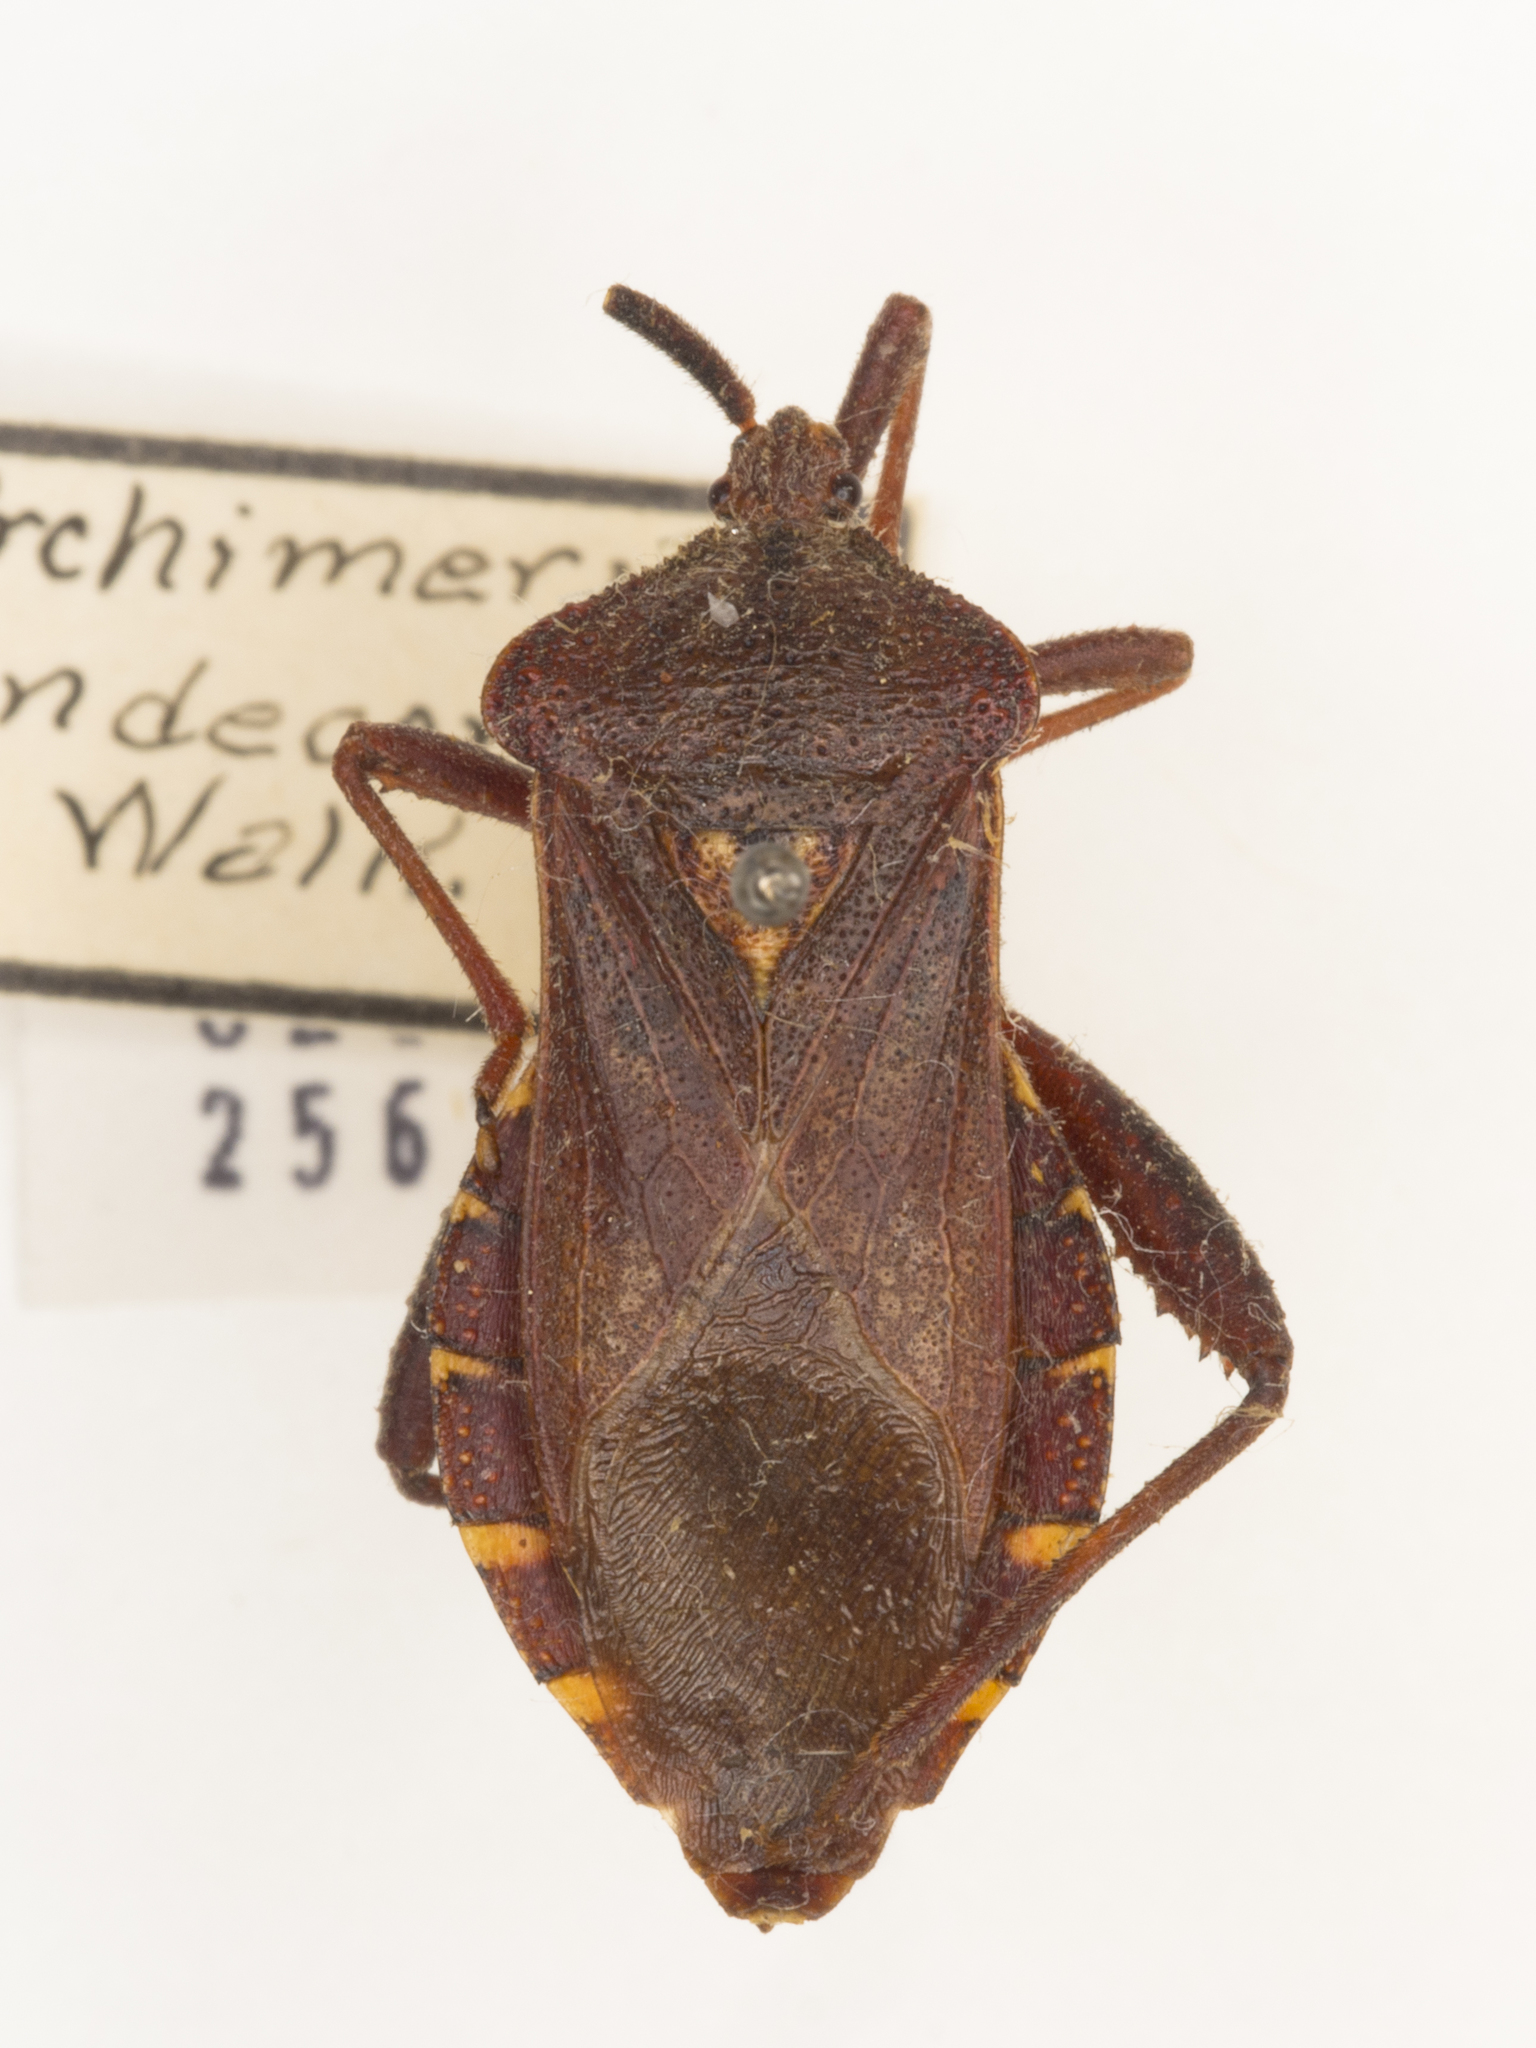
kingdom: Animalia
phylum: Arthropoda
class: Insecta
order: Hemiptera
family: Coreidae
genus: Piezogaster
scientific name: Piezogaster indecorus
